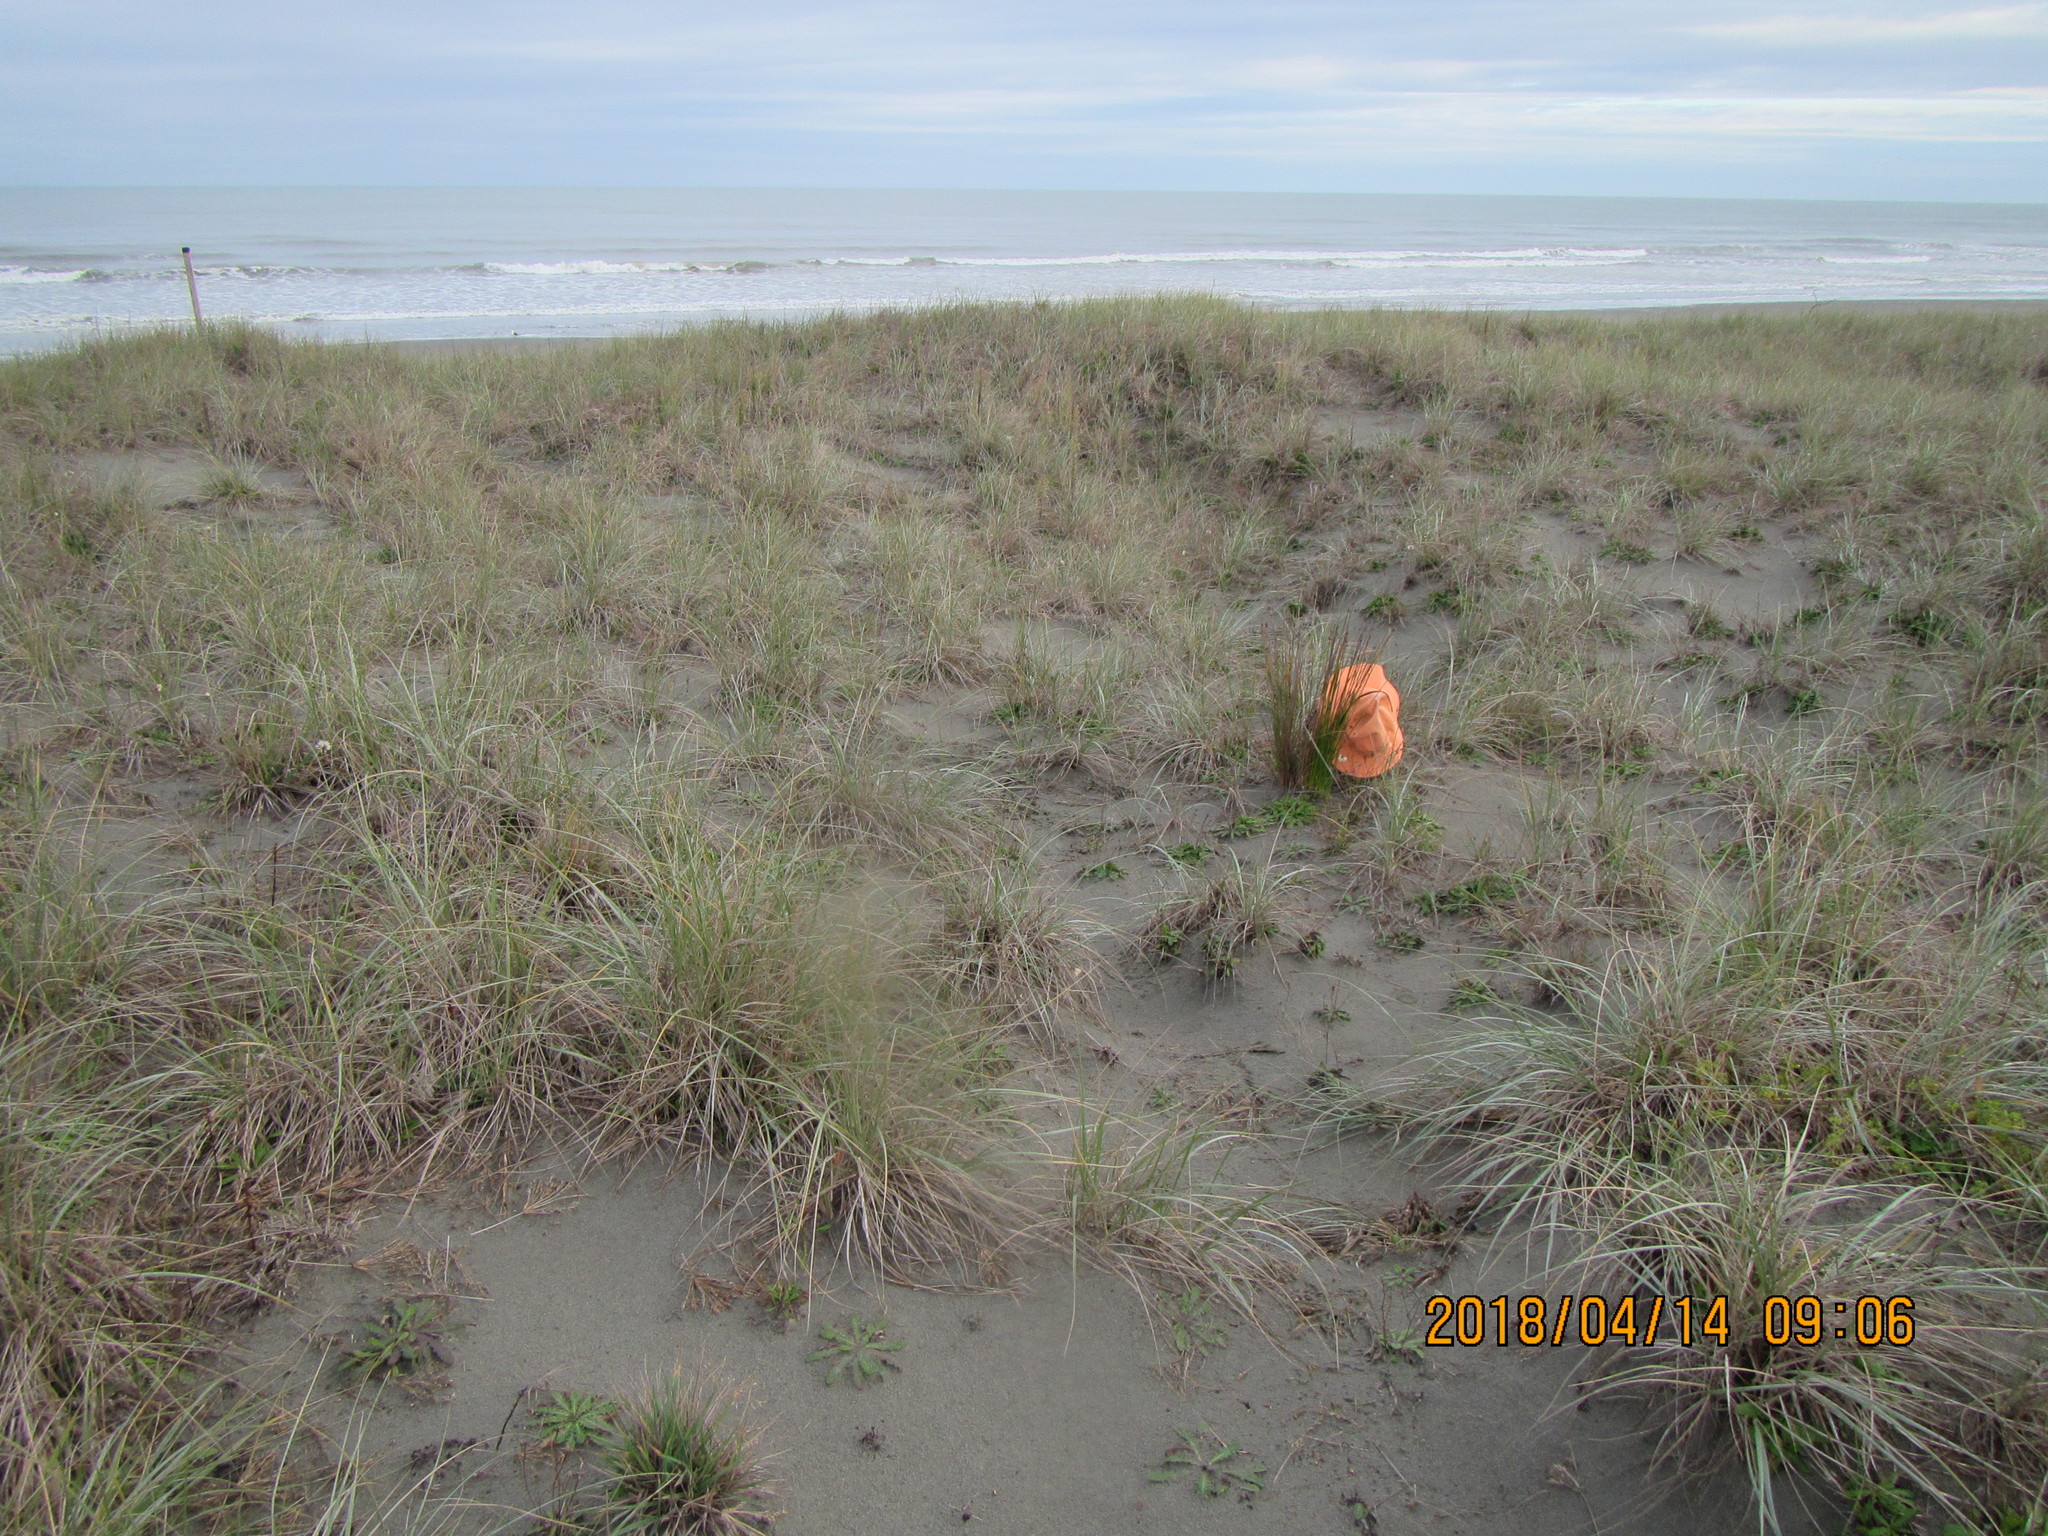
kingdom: Plantae
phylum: Tracheophyta
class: Liliopsida
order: Poales
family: Cyperaceae
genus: Ficinia
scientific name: Ficinia nodosa
